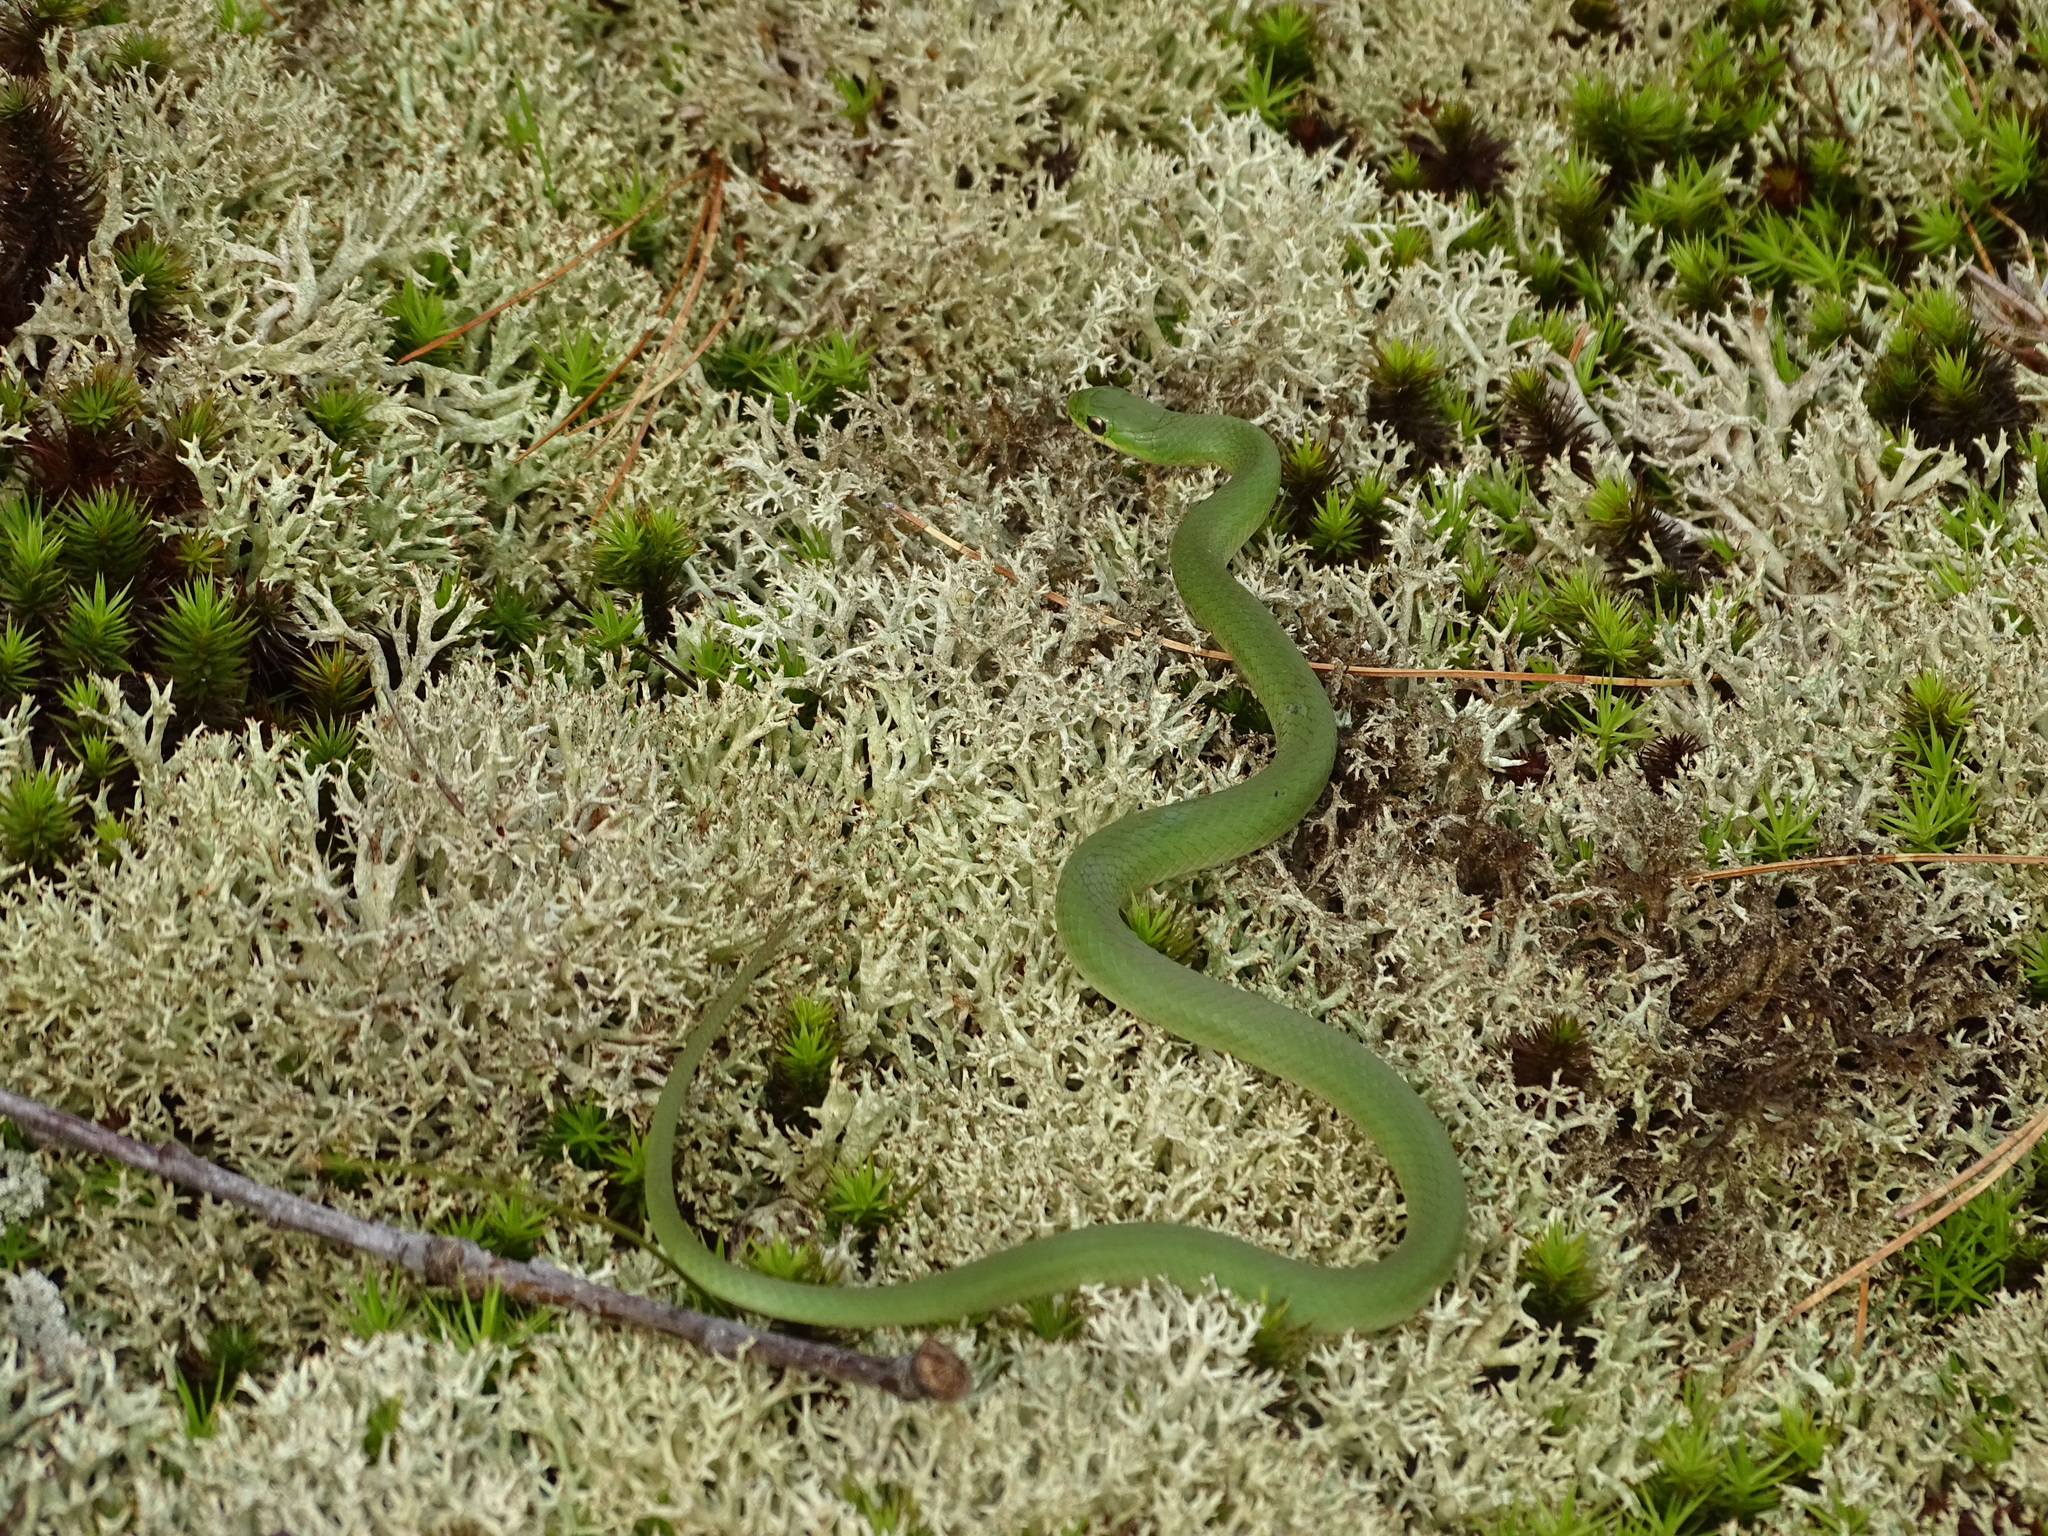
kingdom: Animalia
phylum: Chordata
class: Squamata
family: Colubridae
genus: Opheodrys
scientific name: Opheodrys vernalis
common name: Smooth green snake
